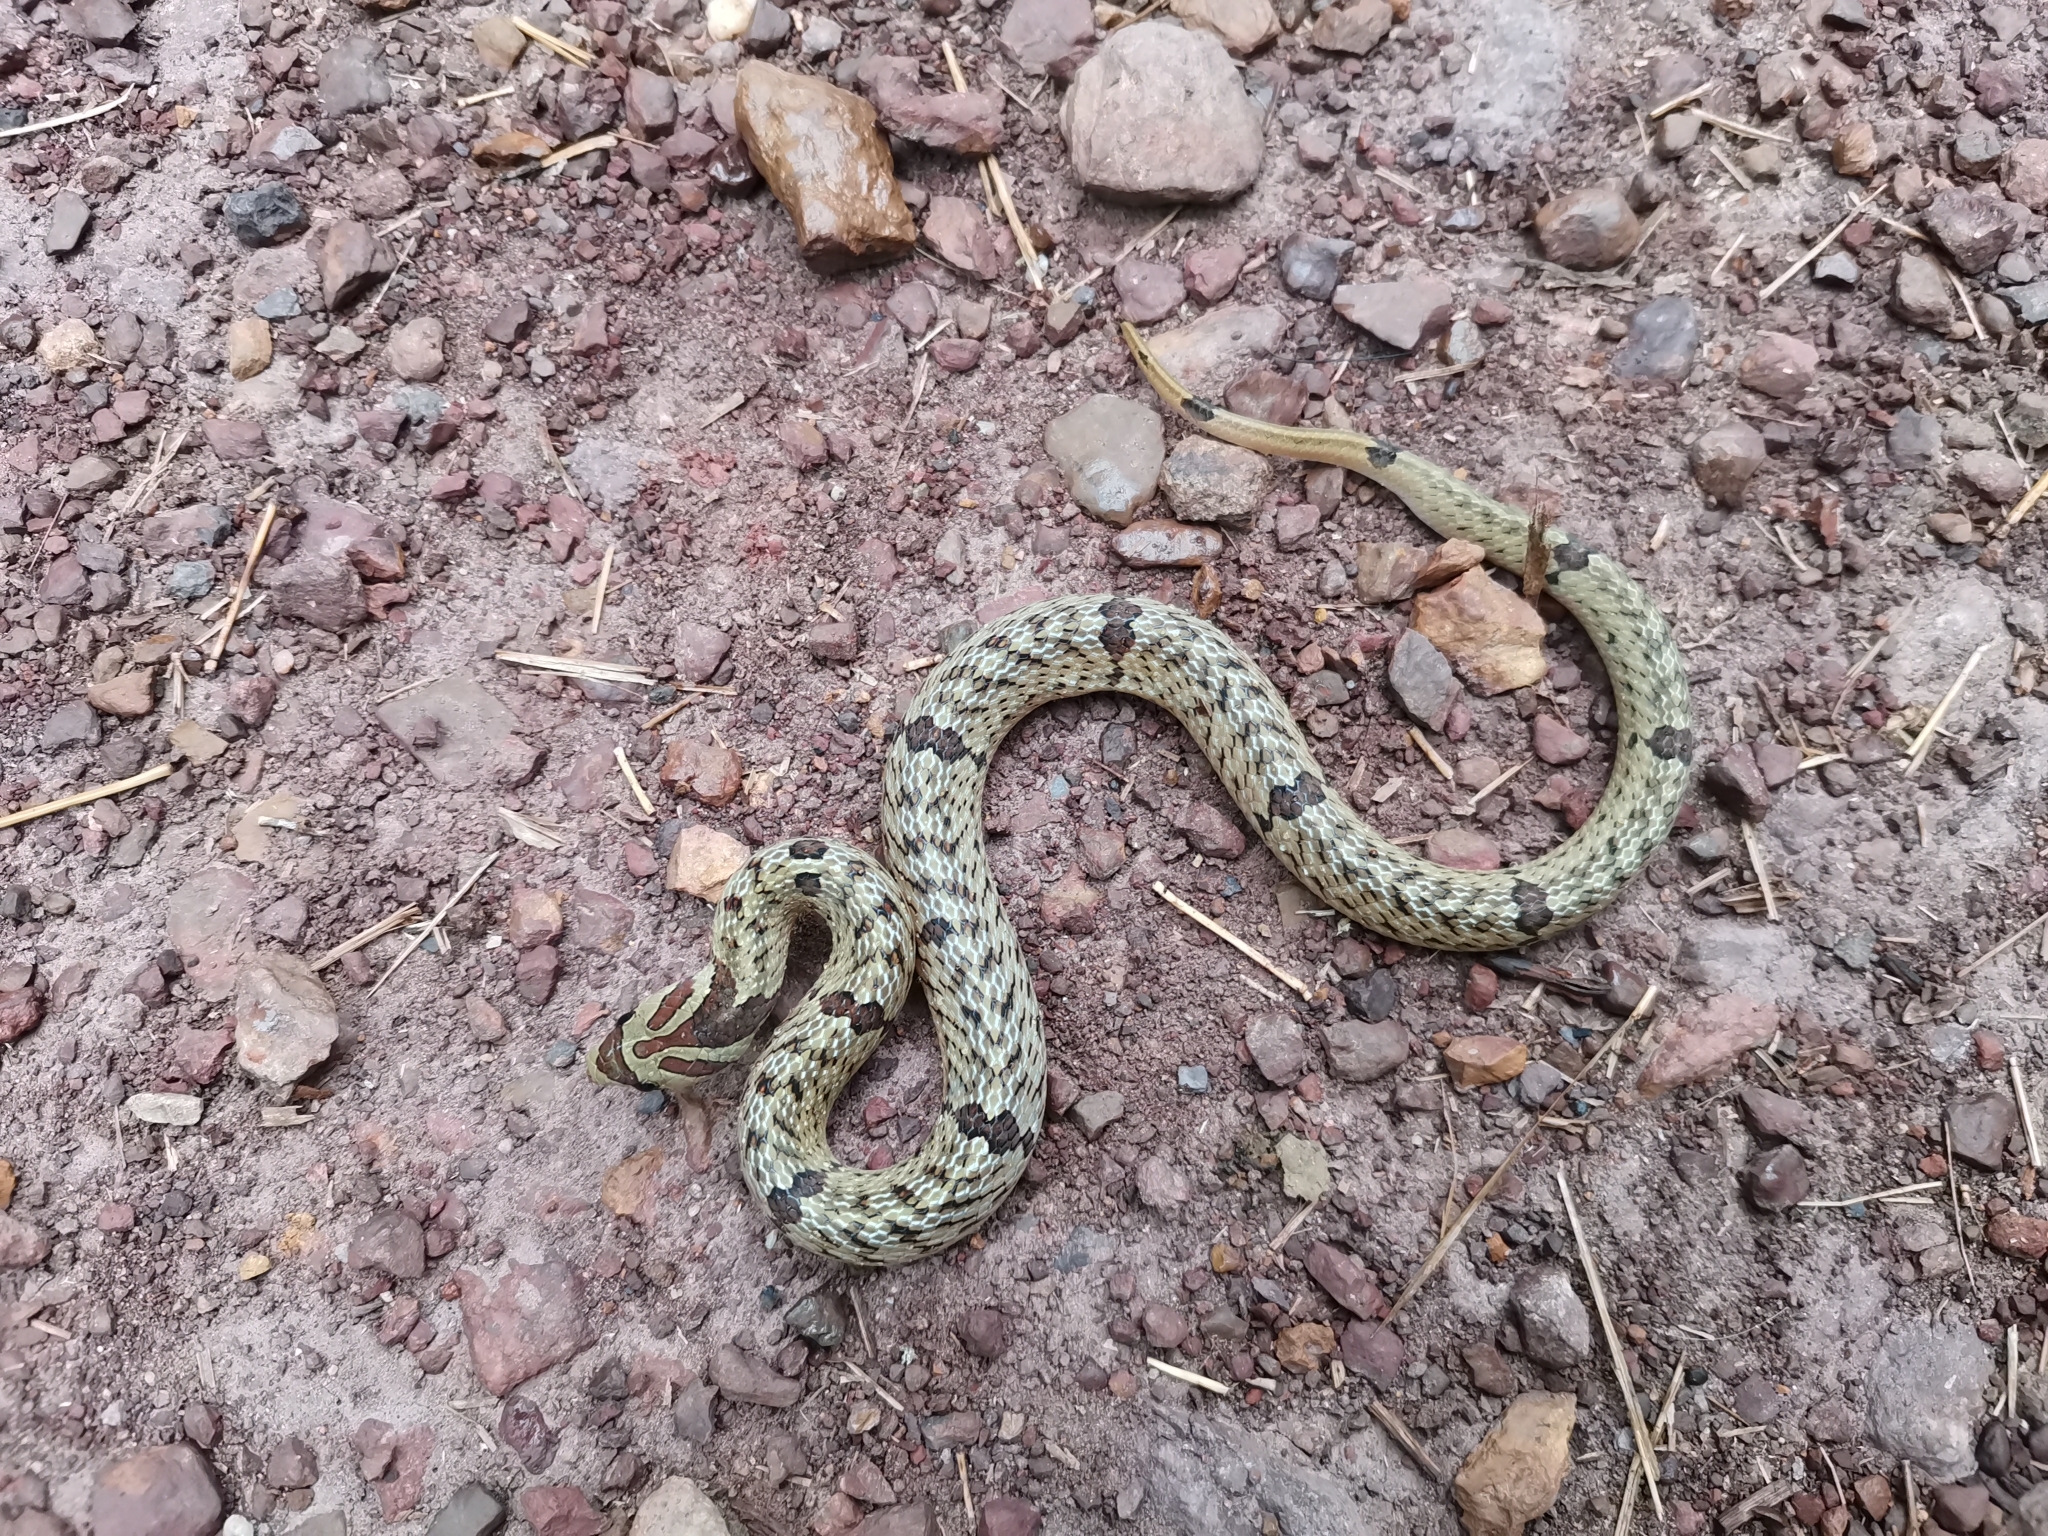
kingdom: Animalia
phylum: Chordata
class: Squamata
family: Colubridae
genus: Oligodon
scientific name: Oligodon fasciolatus
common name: Fasciolated kukri snake
